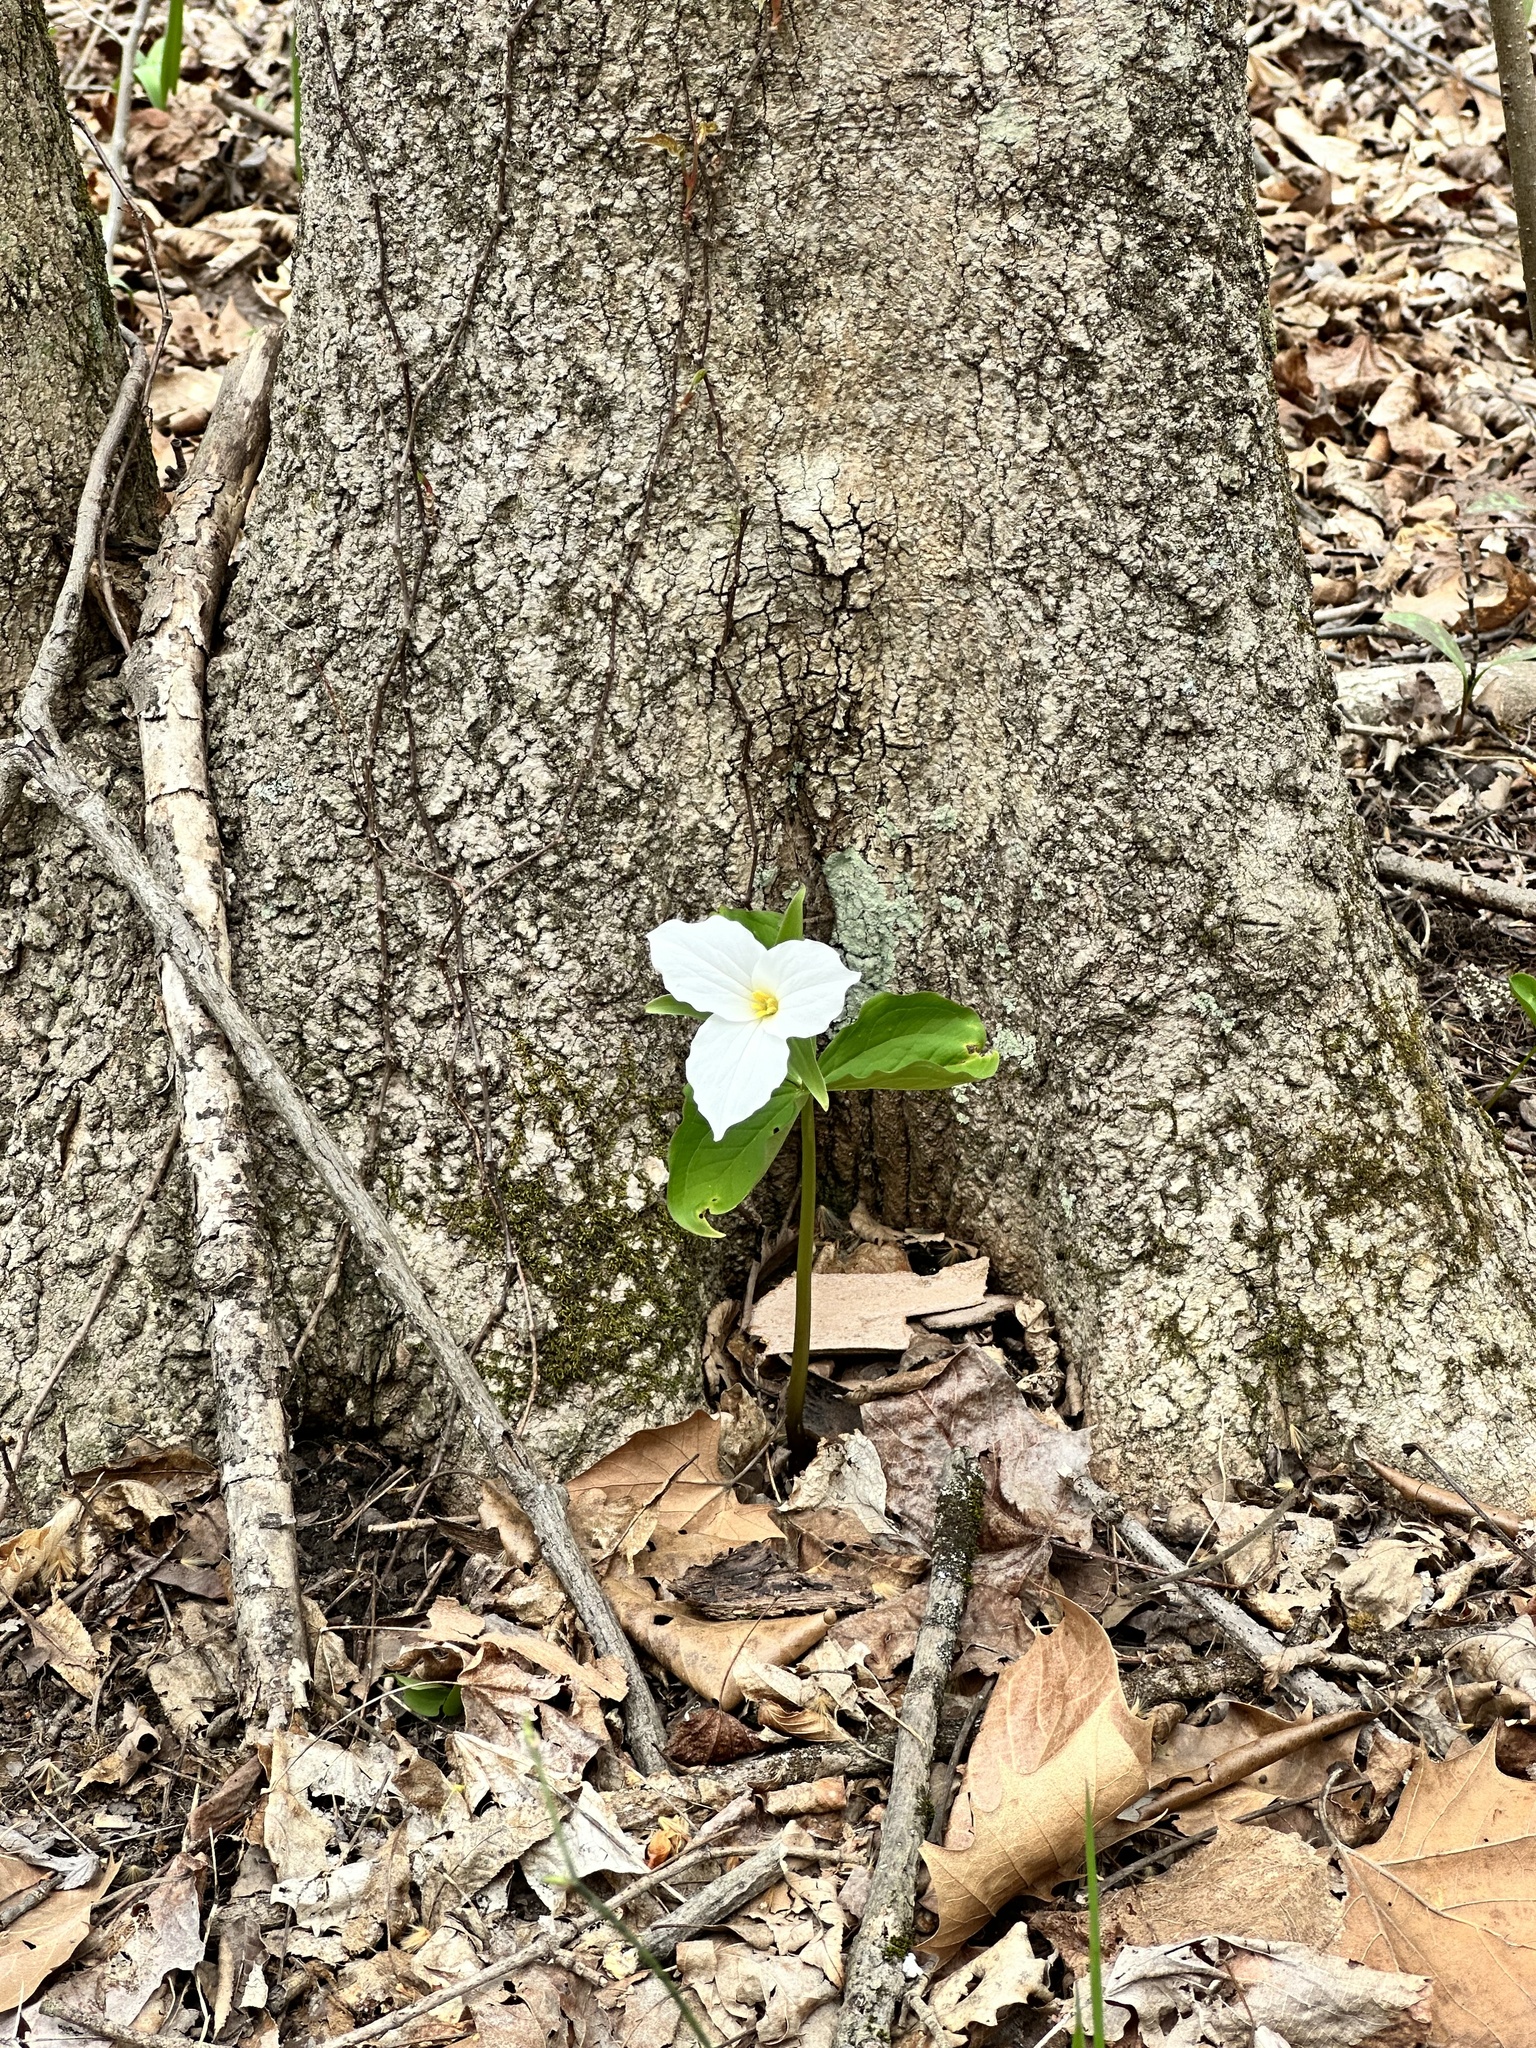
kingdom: Plantae
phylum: Tracheophyta
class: Liliopsida
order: Liliales
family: Melanthiaceae
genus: Trillium
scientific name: Trillium grandiflorum
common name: Great white trillium
